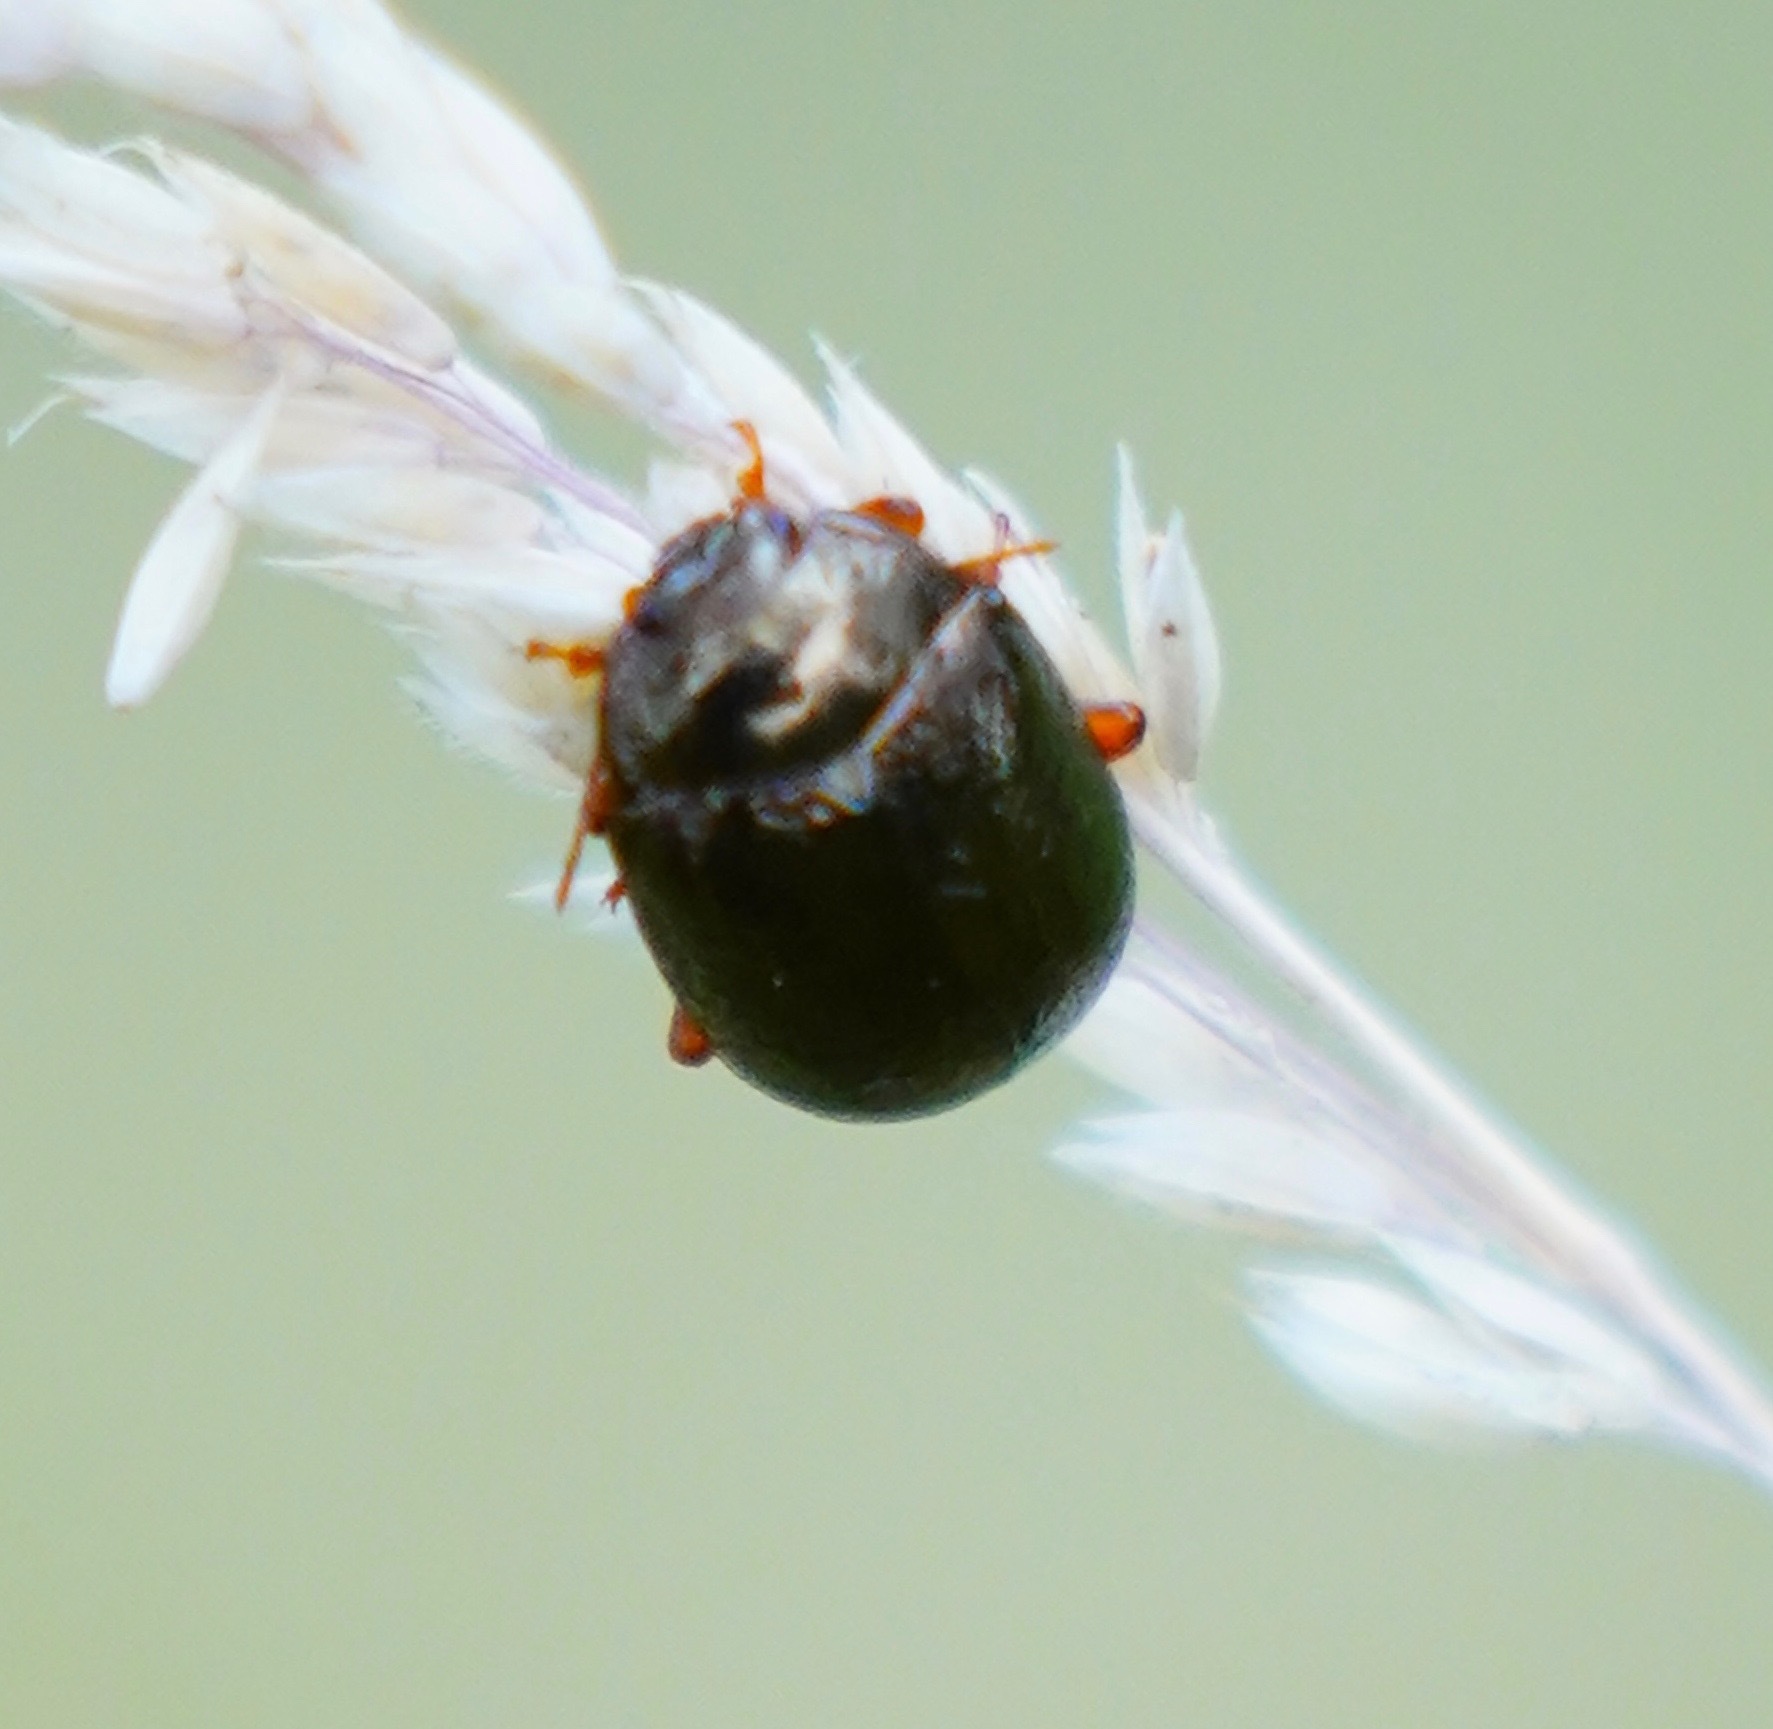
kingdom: Animalia
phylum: Arthropoda
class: Insecta
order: Coleoptera
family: Chrysomelidae
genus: Chrysolina
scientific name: Chrysolina bankii
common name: Leaf beetle
